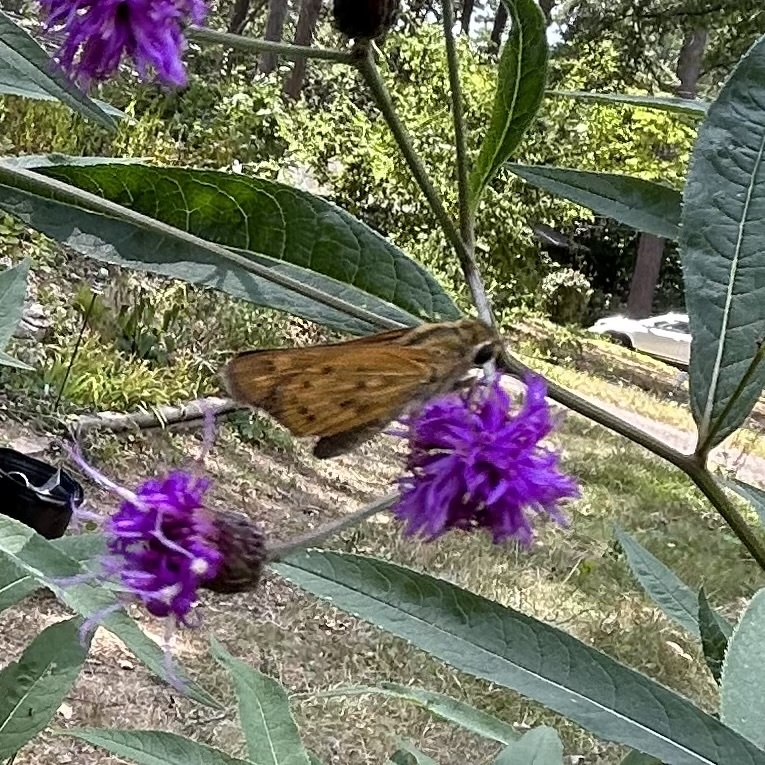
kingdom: Animalia
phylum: Arthropoda
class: Insecta
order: Lepidoptera
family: Hesperiidae
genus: Hylephila
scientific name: Hylephila phyleus
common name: Fiery skipper
